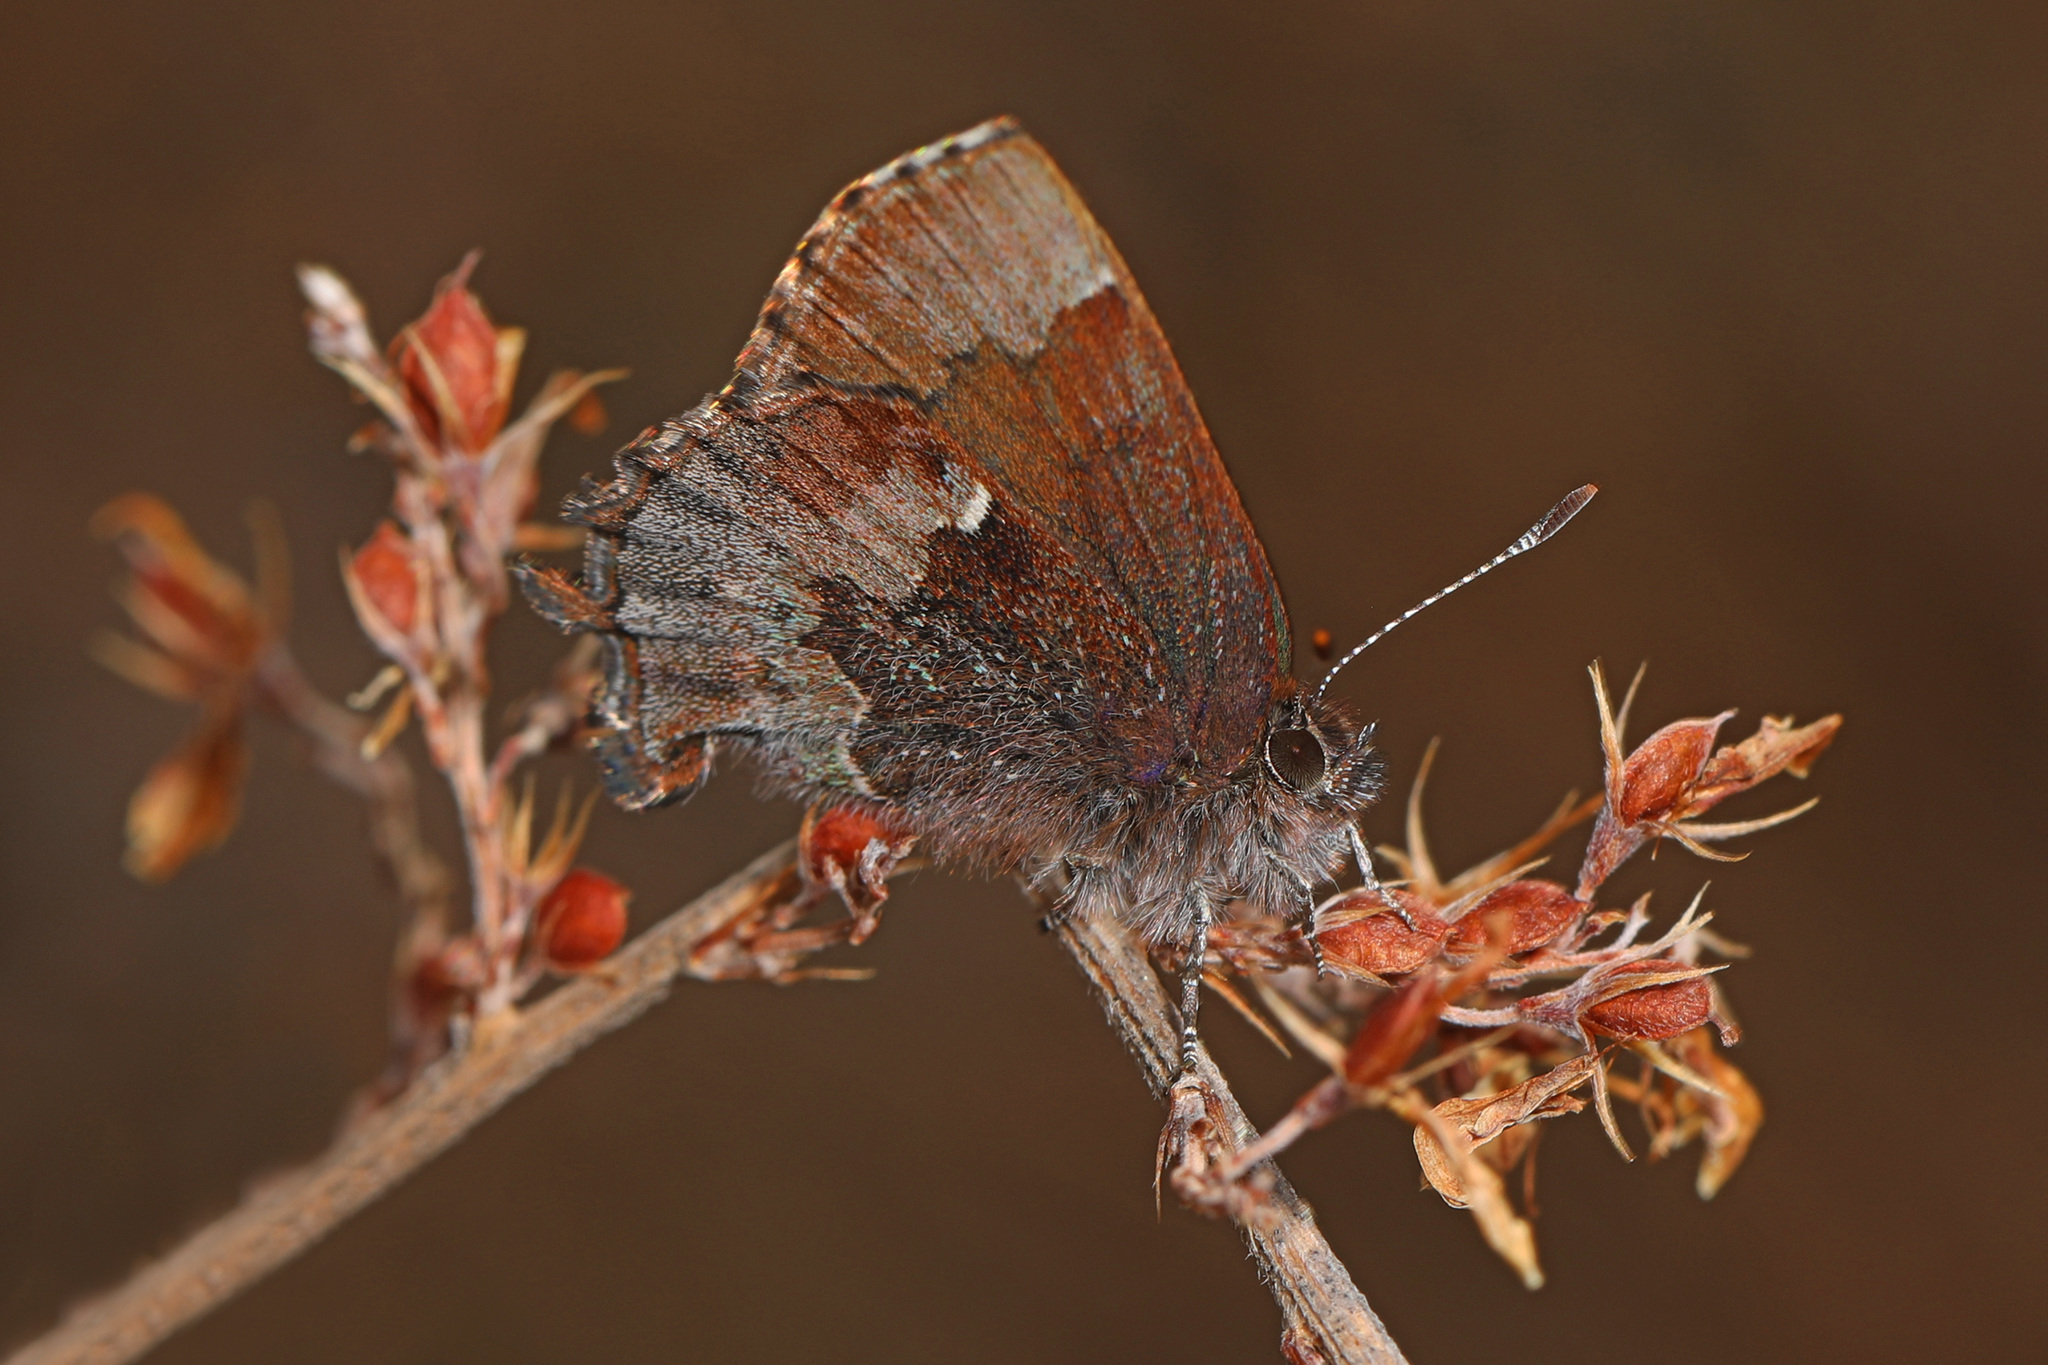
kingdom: Animalia
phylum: Arthropoda
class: Insecta
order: Lepidoptera
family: Lycaenidae
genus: Incisalia
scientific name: Incisalia henrici
